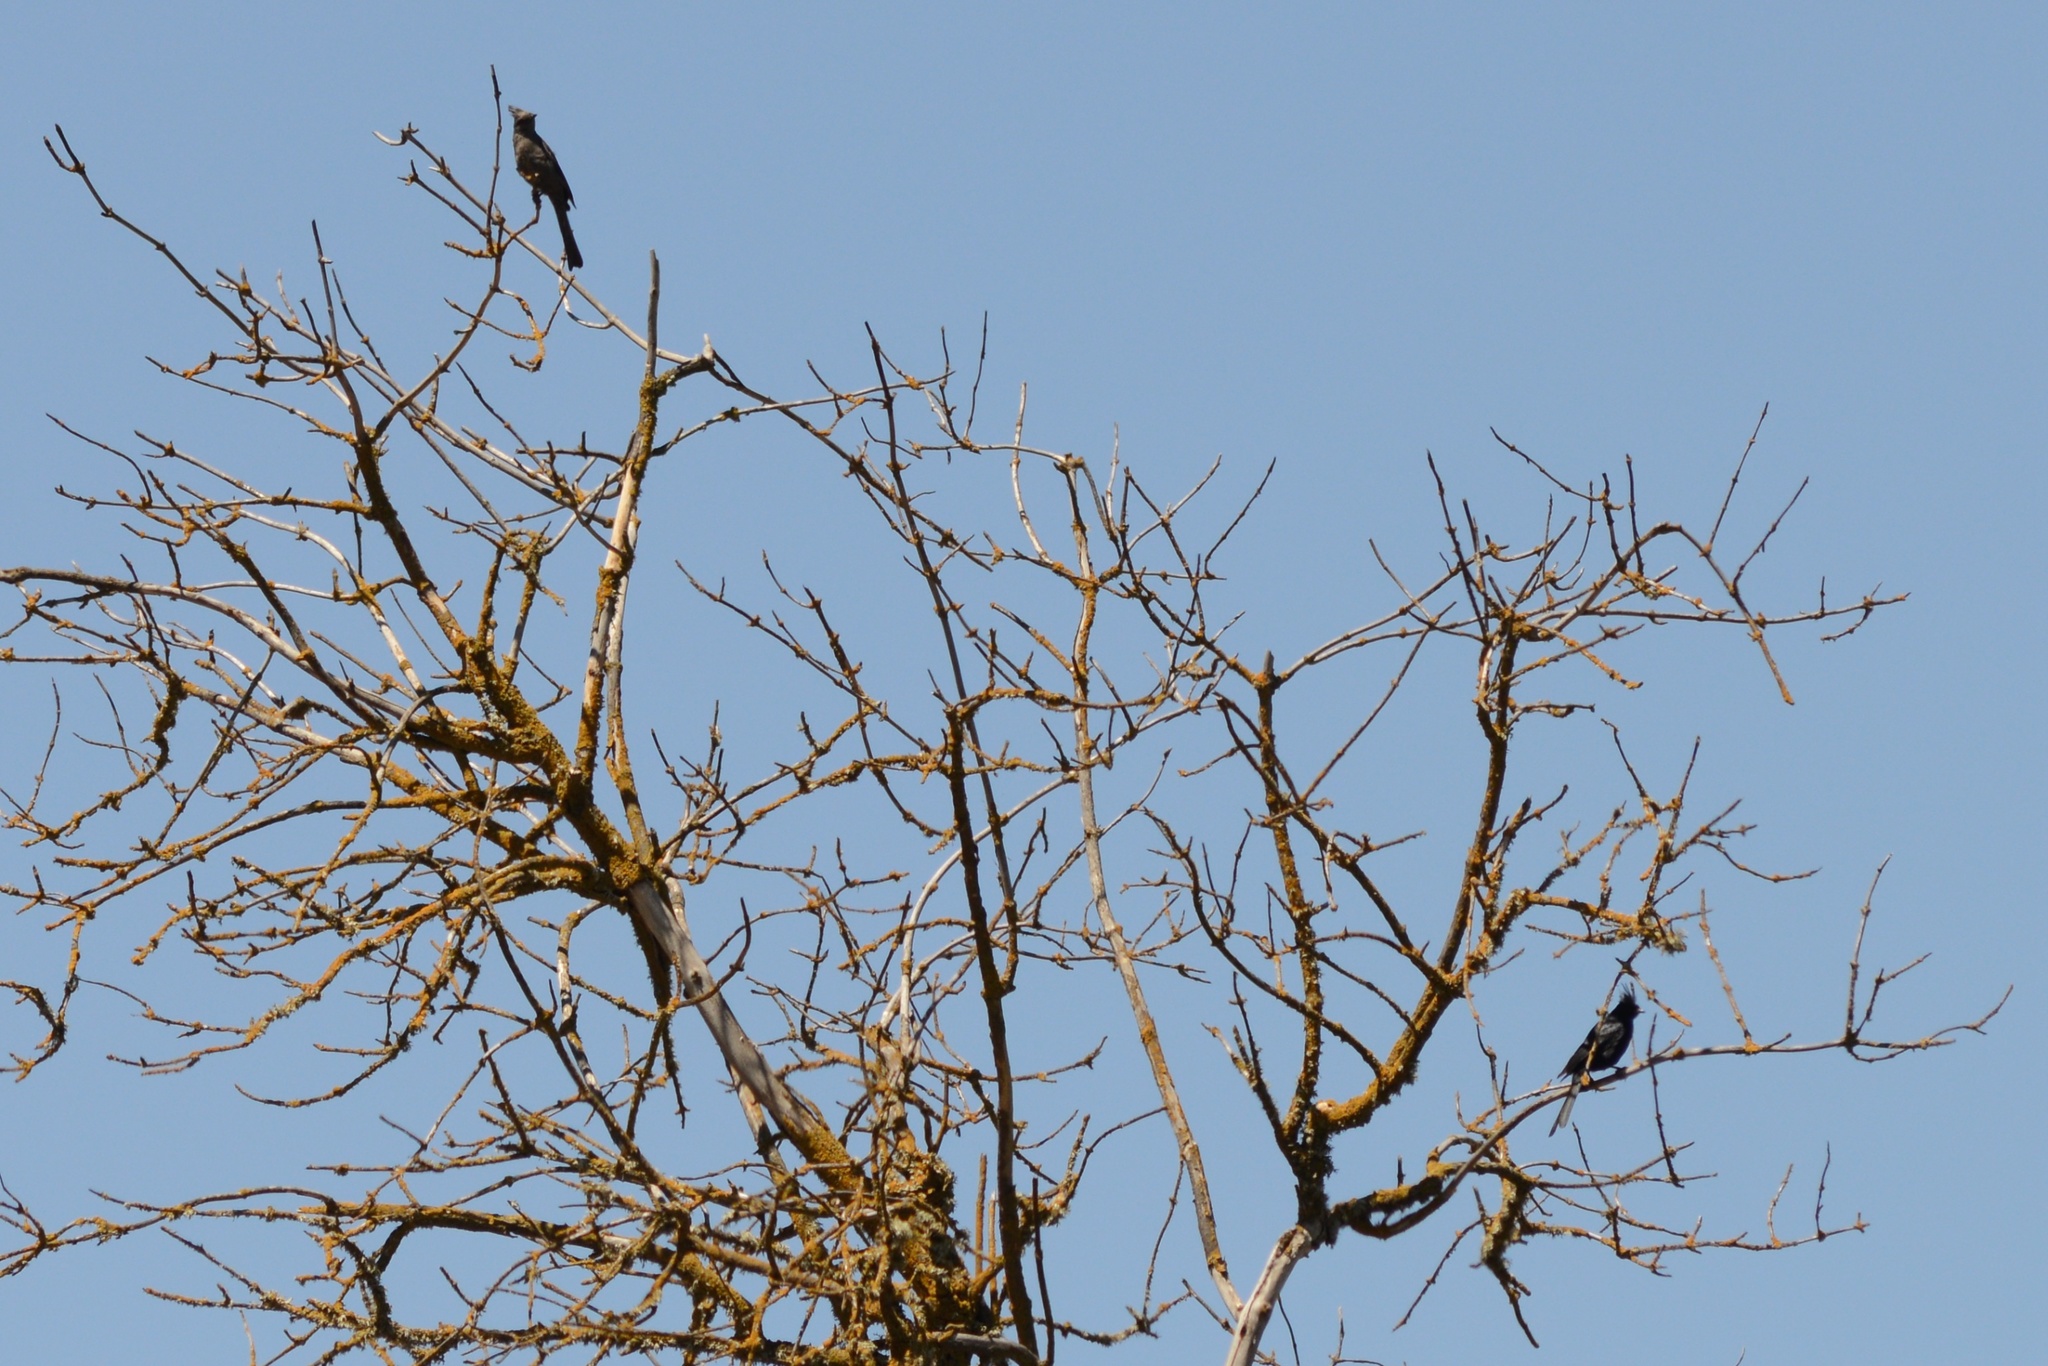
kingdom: Animalia
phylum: Chordata
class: Aves
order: Passeriformes
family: Ptilogonatidae
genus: Phainopepla
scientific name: Phainopepla nitens
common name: Phainopepla
